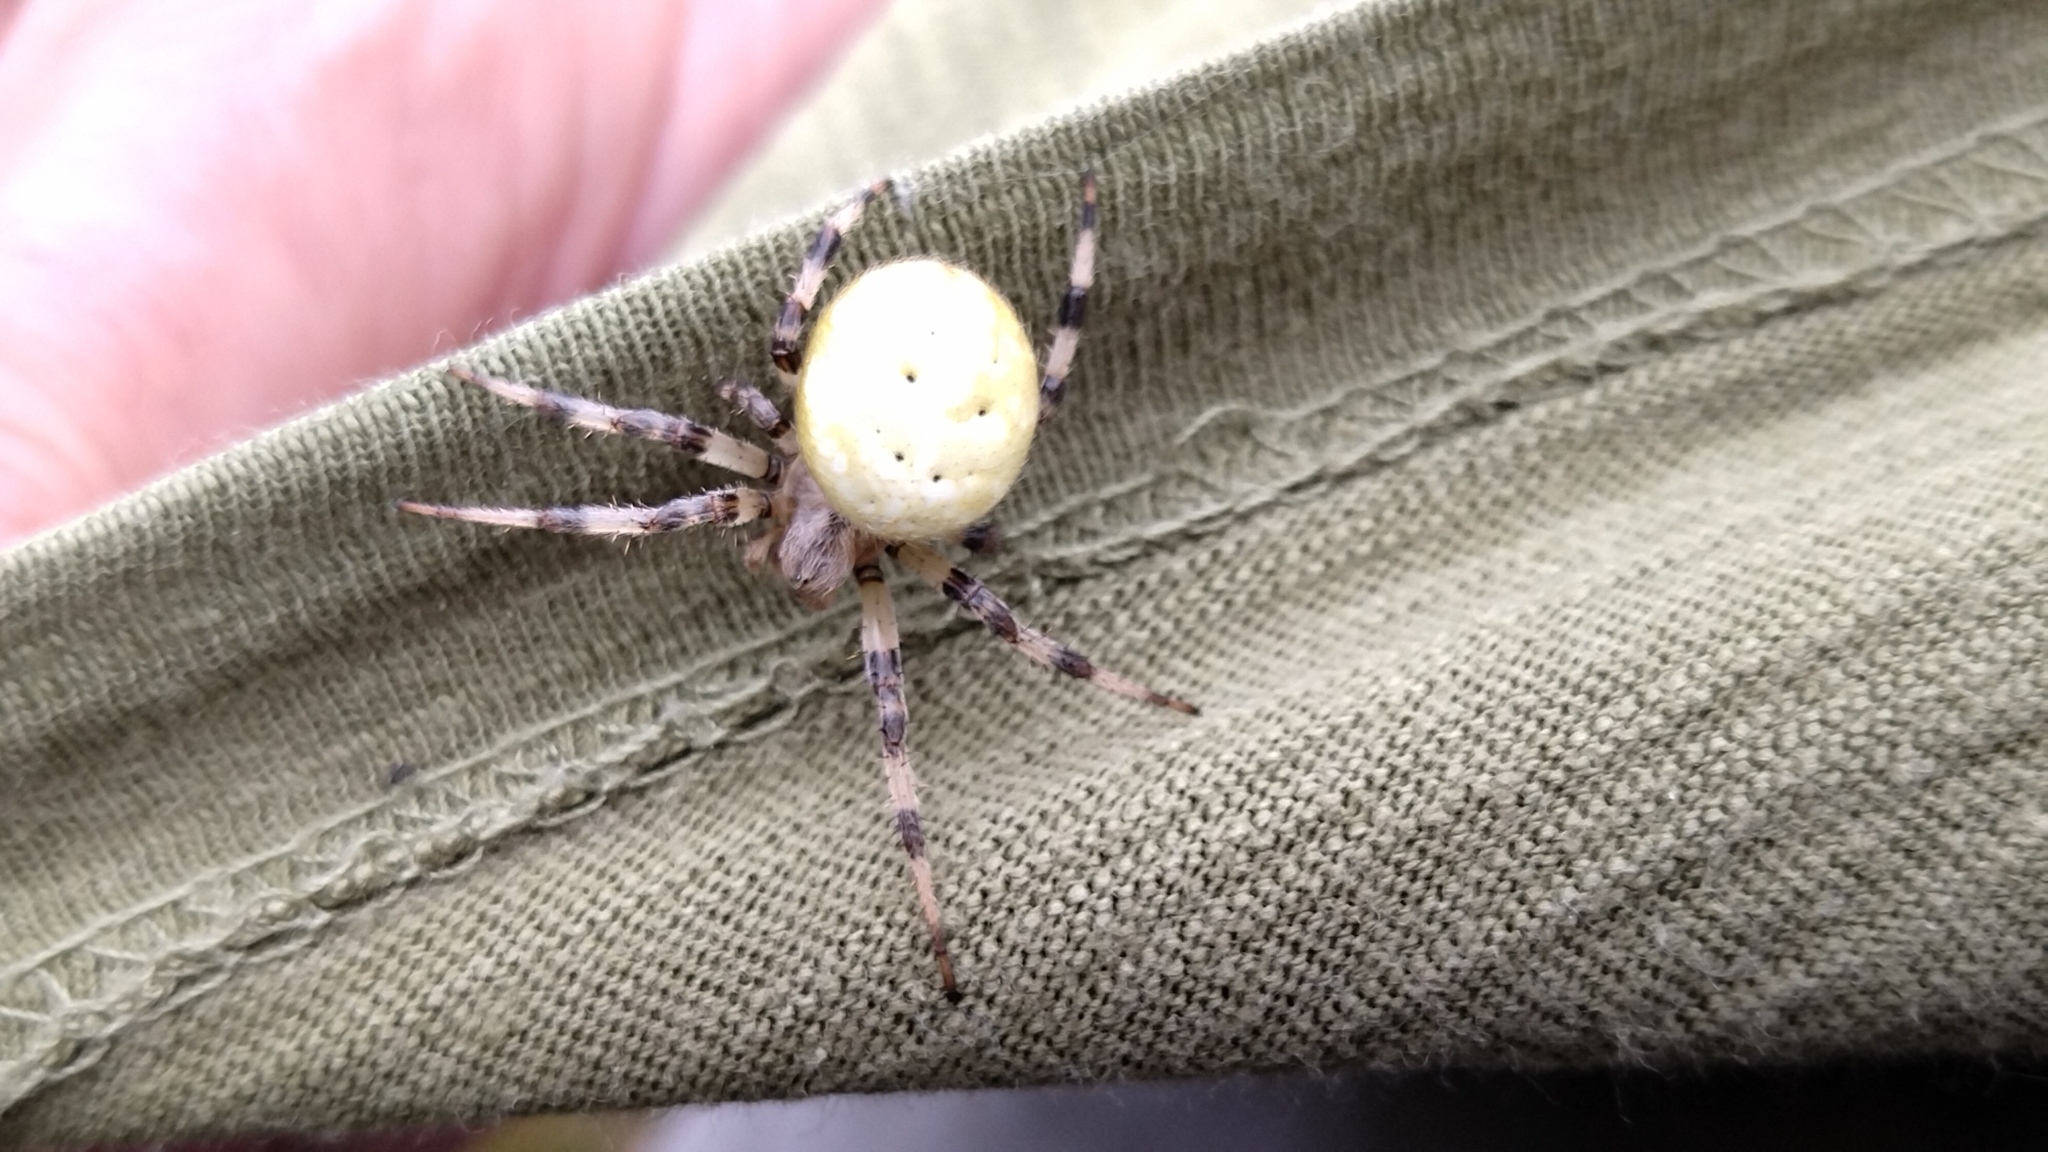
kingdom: Animalia
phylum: Arthropoda
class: Arachnida
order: Araneae
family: Araneidae
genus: Araneus
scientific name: Araneus quadratus
